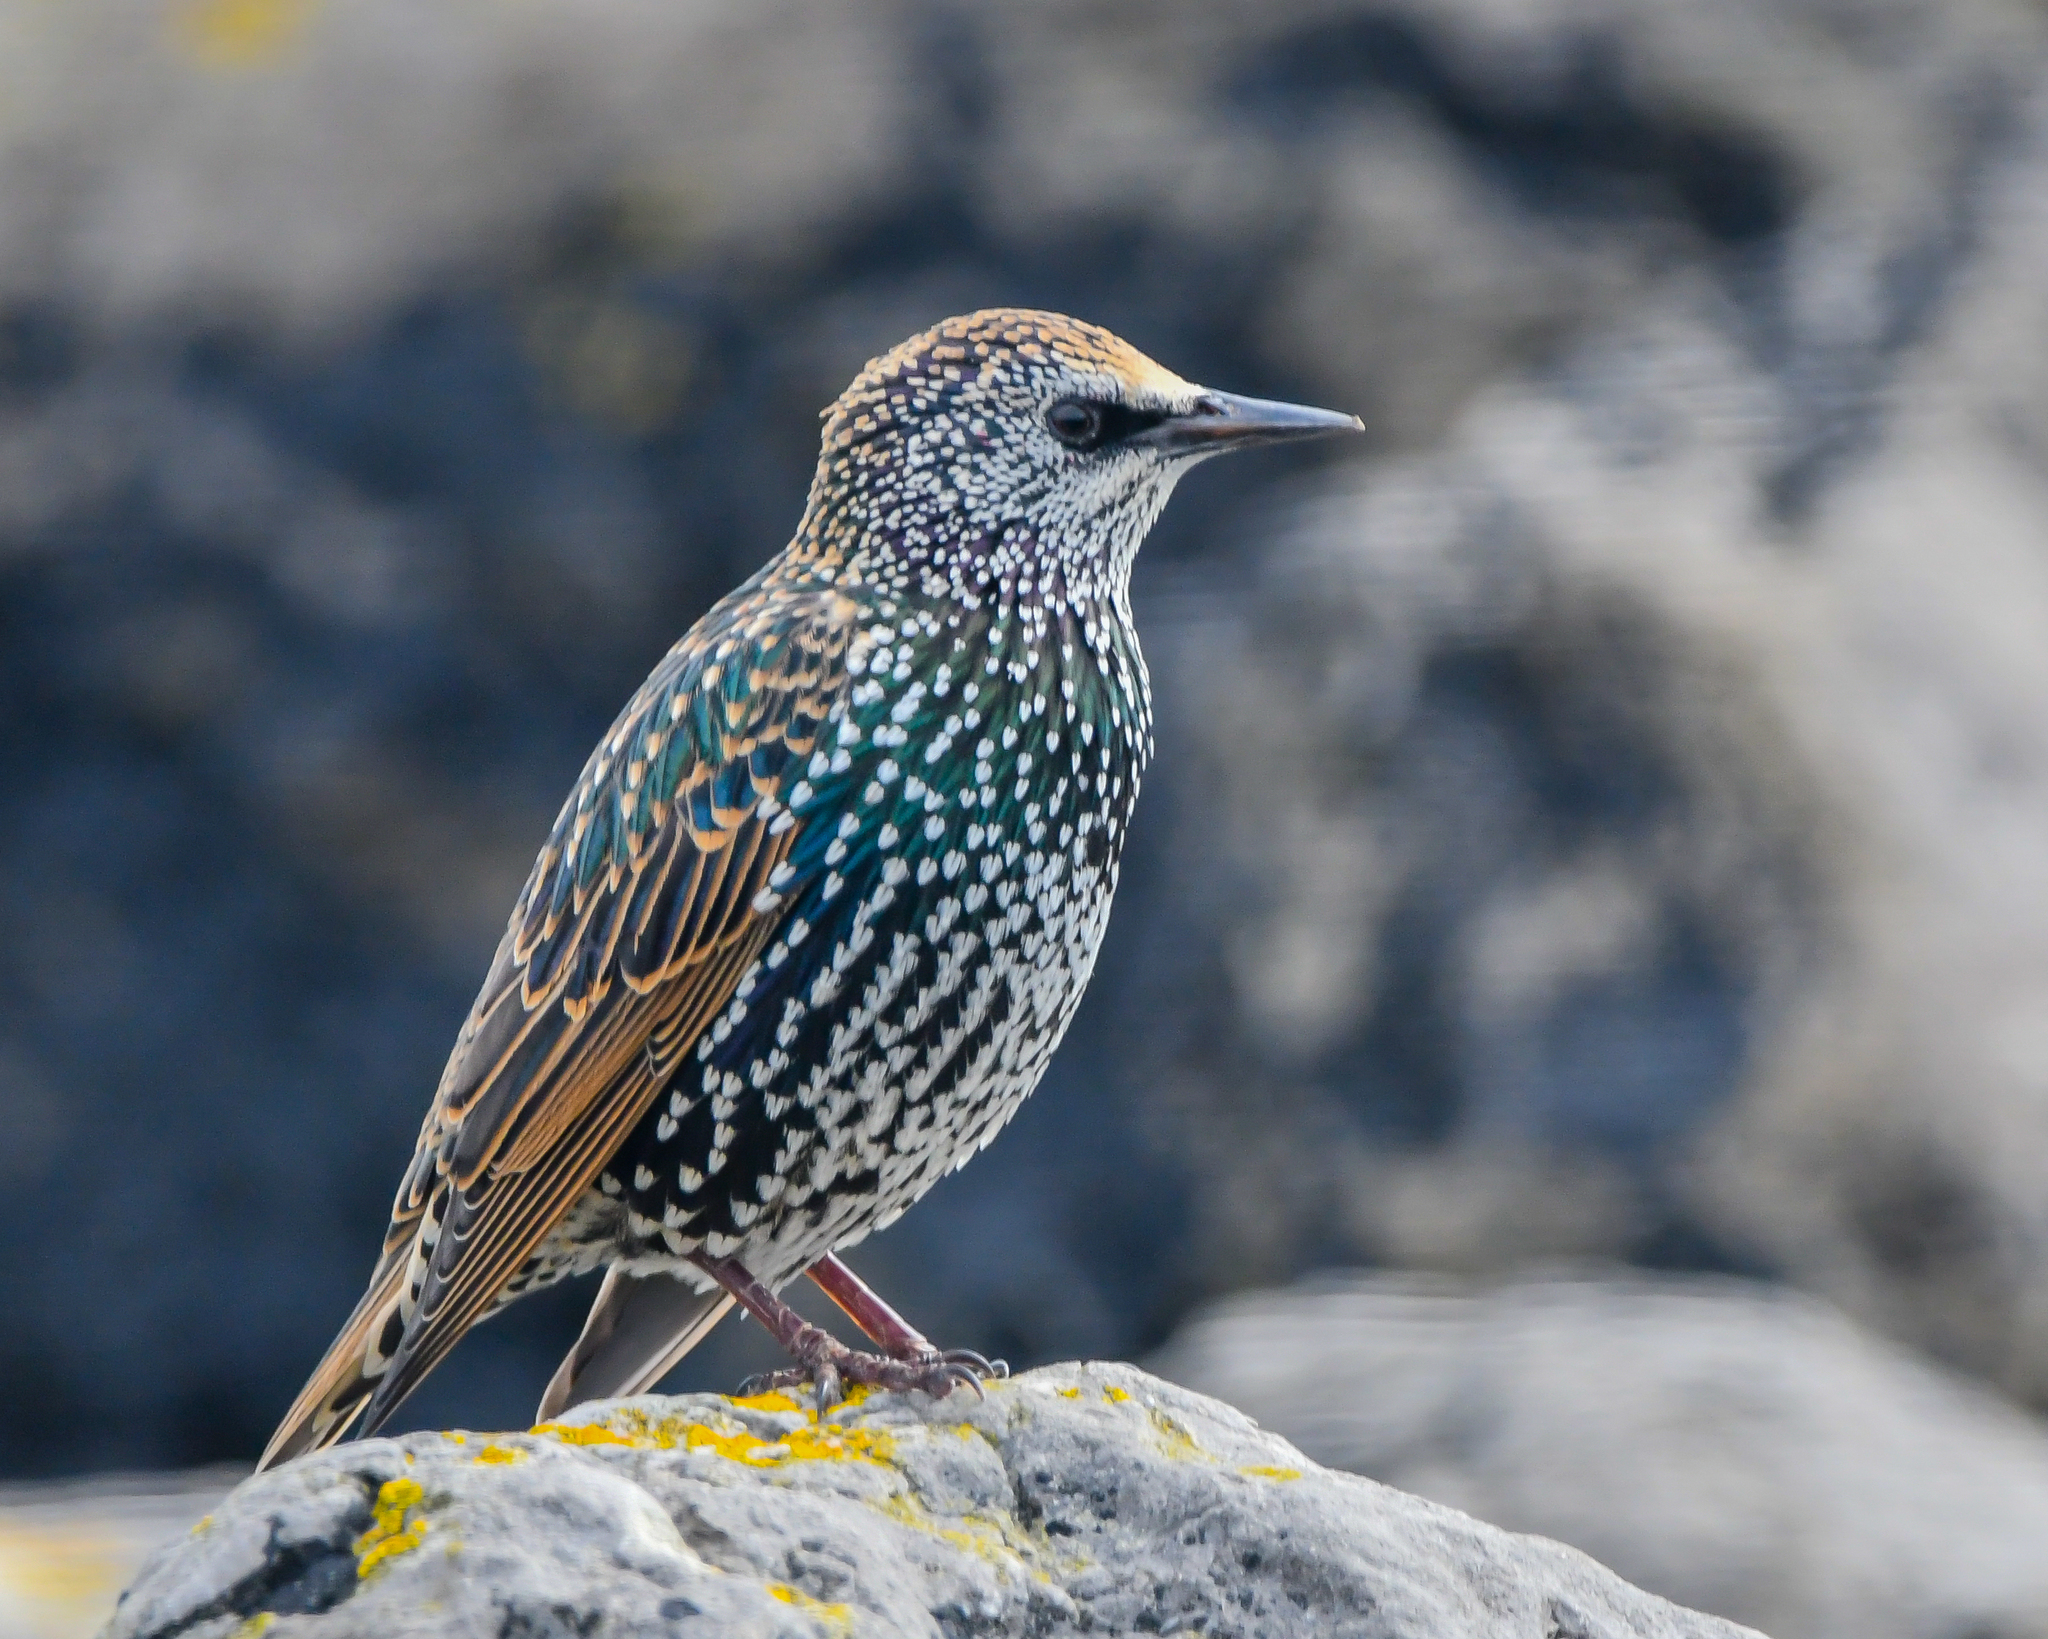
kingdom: Animalia
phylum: Chordata
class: Aves
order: Passeriformes
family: Sturnidae
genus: Sturnus
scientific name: Sturnus vulgaris
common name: Common starling
